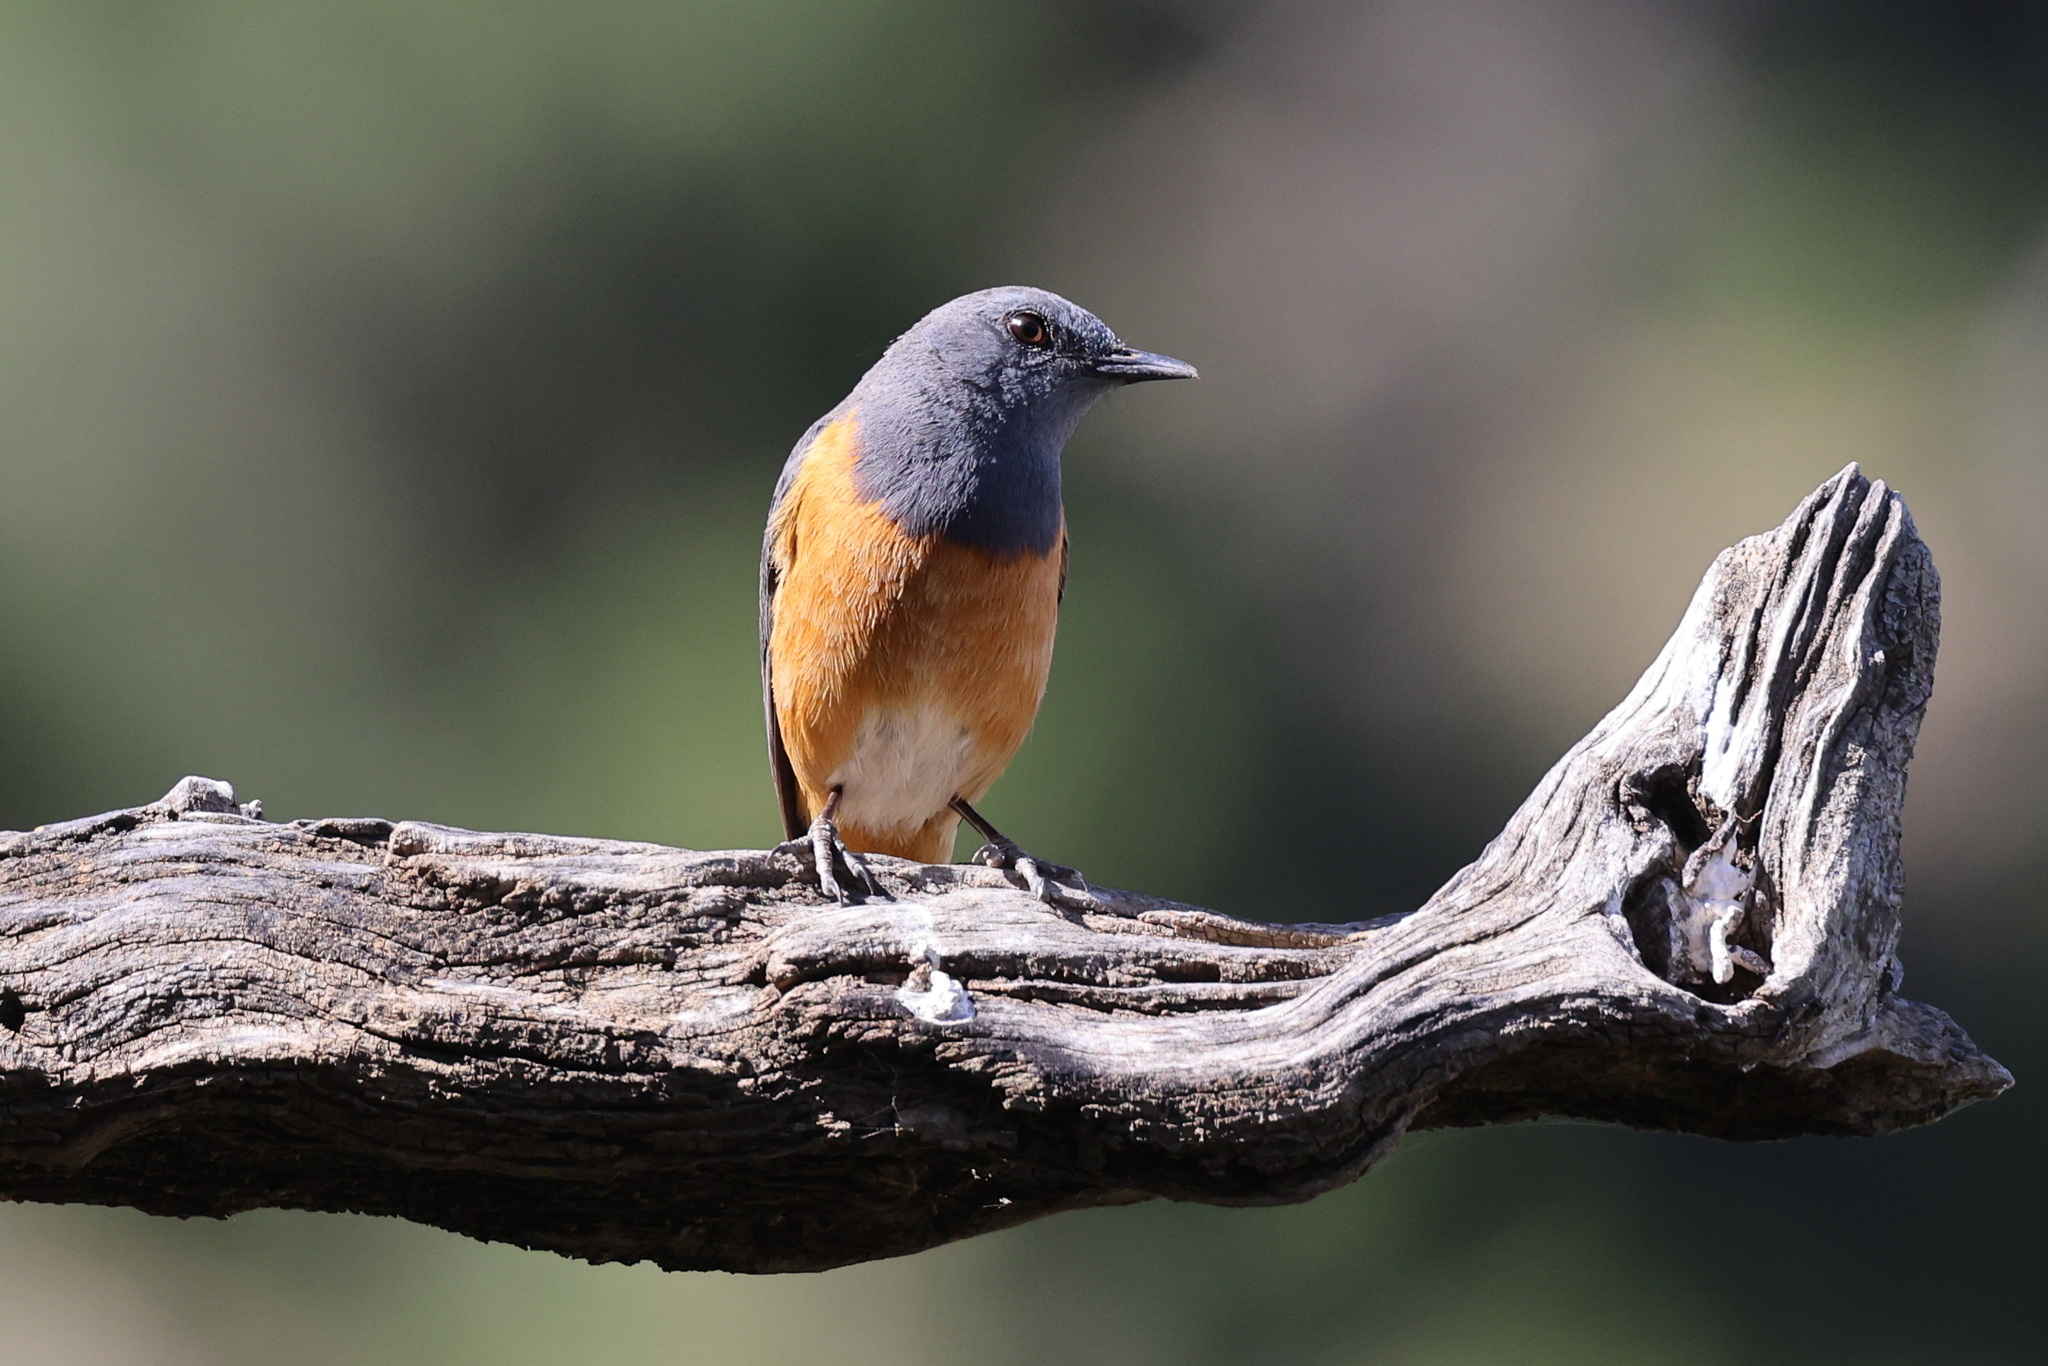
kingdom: Animalia
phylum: Chordata
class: Aves
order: Passeriformes
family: Muscicapidae
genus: Monticola
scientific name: Monticola rufocinereus
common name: Little rock thrush
